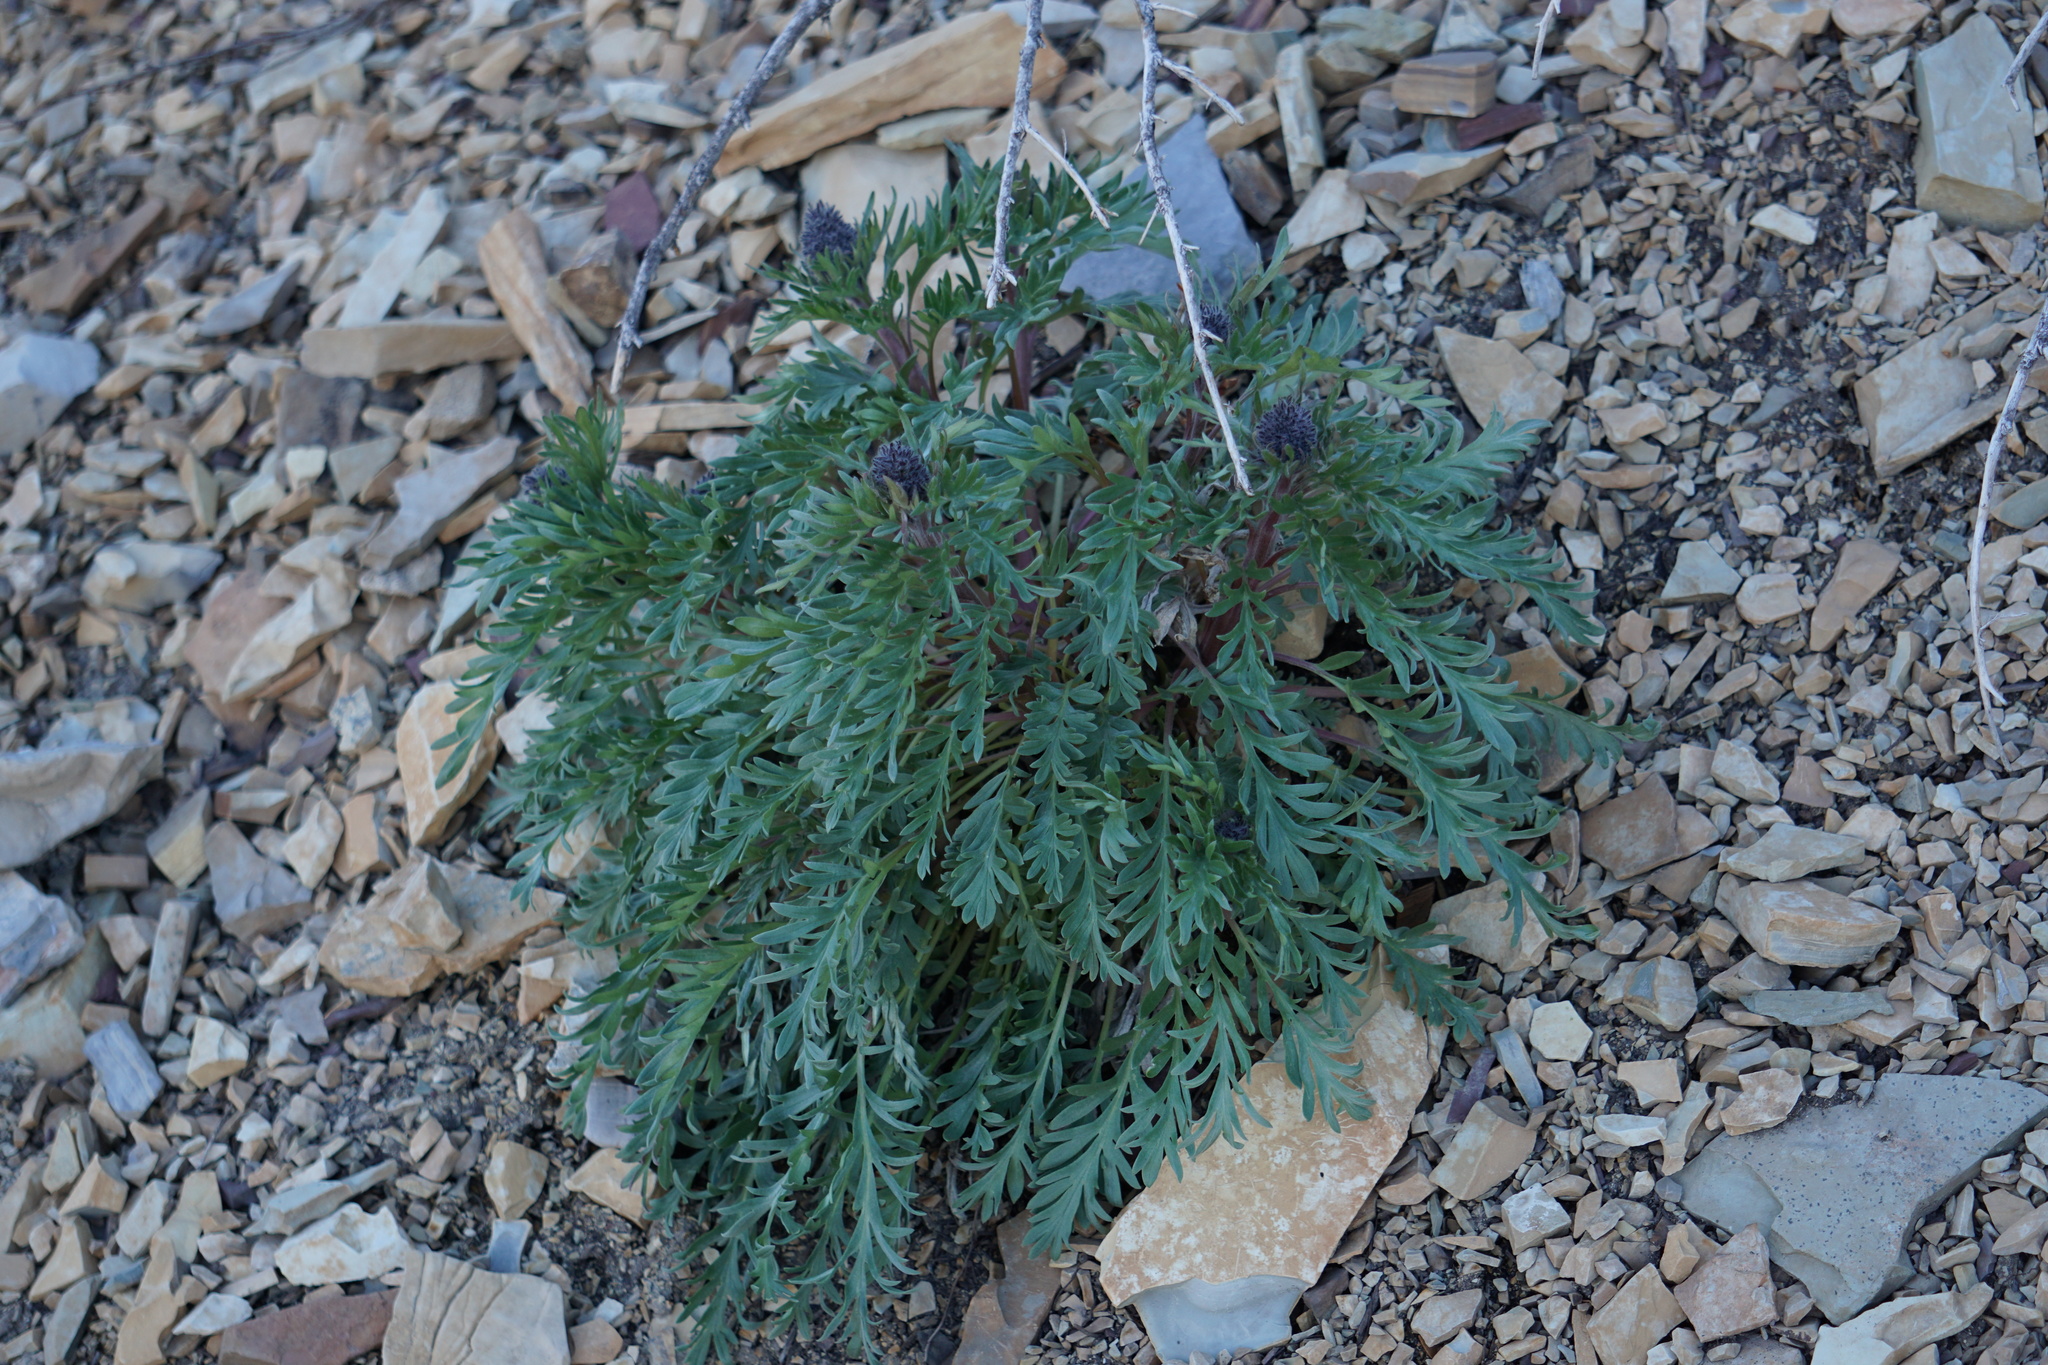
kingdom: Plantae
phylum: Tracheophyta
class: Magnoliopsida
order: Boraginales
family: Hydrophyllaceae
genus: Phacelia
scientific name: Phacelia sericea
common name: Silky phacelia
